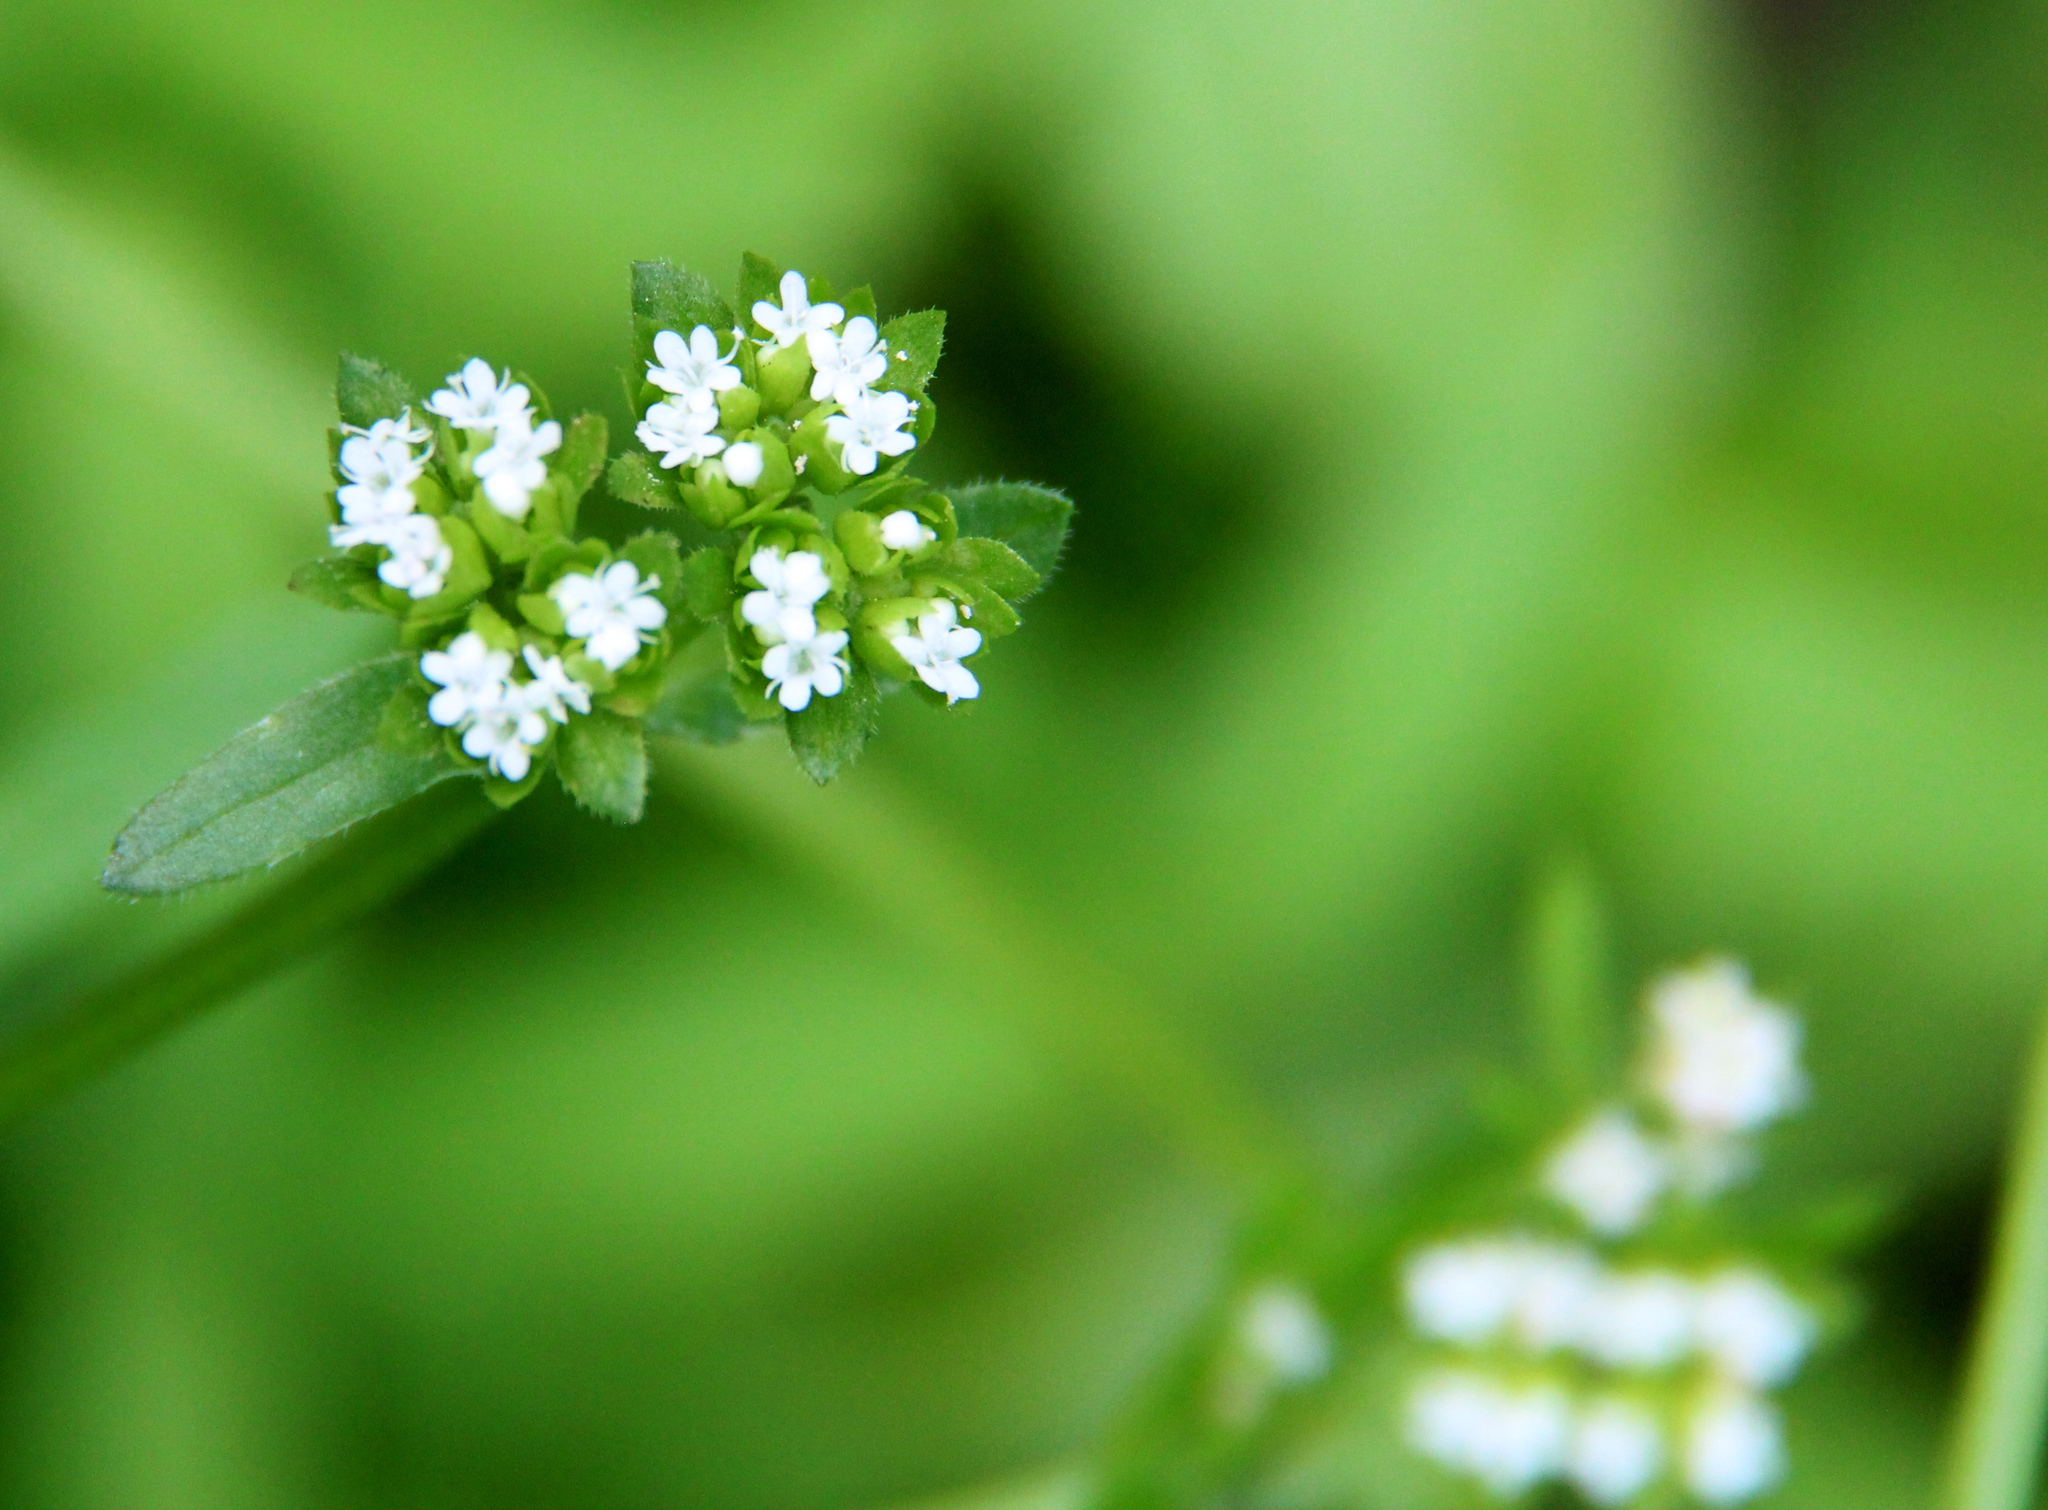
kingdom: Plantae
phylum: Tracheophyta
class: Magnoliopsida
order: Dipsacales
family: Caprifoliaceae
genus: Valerianella
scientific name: Valerianella radiata
